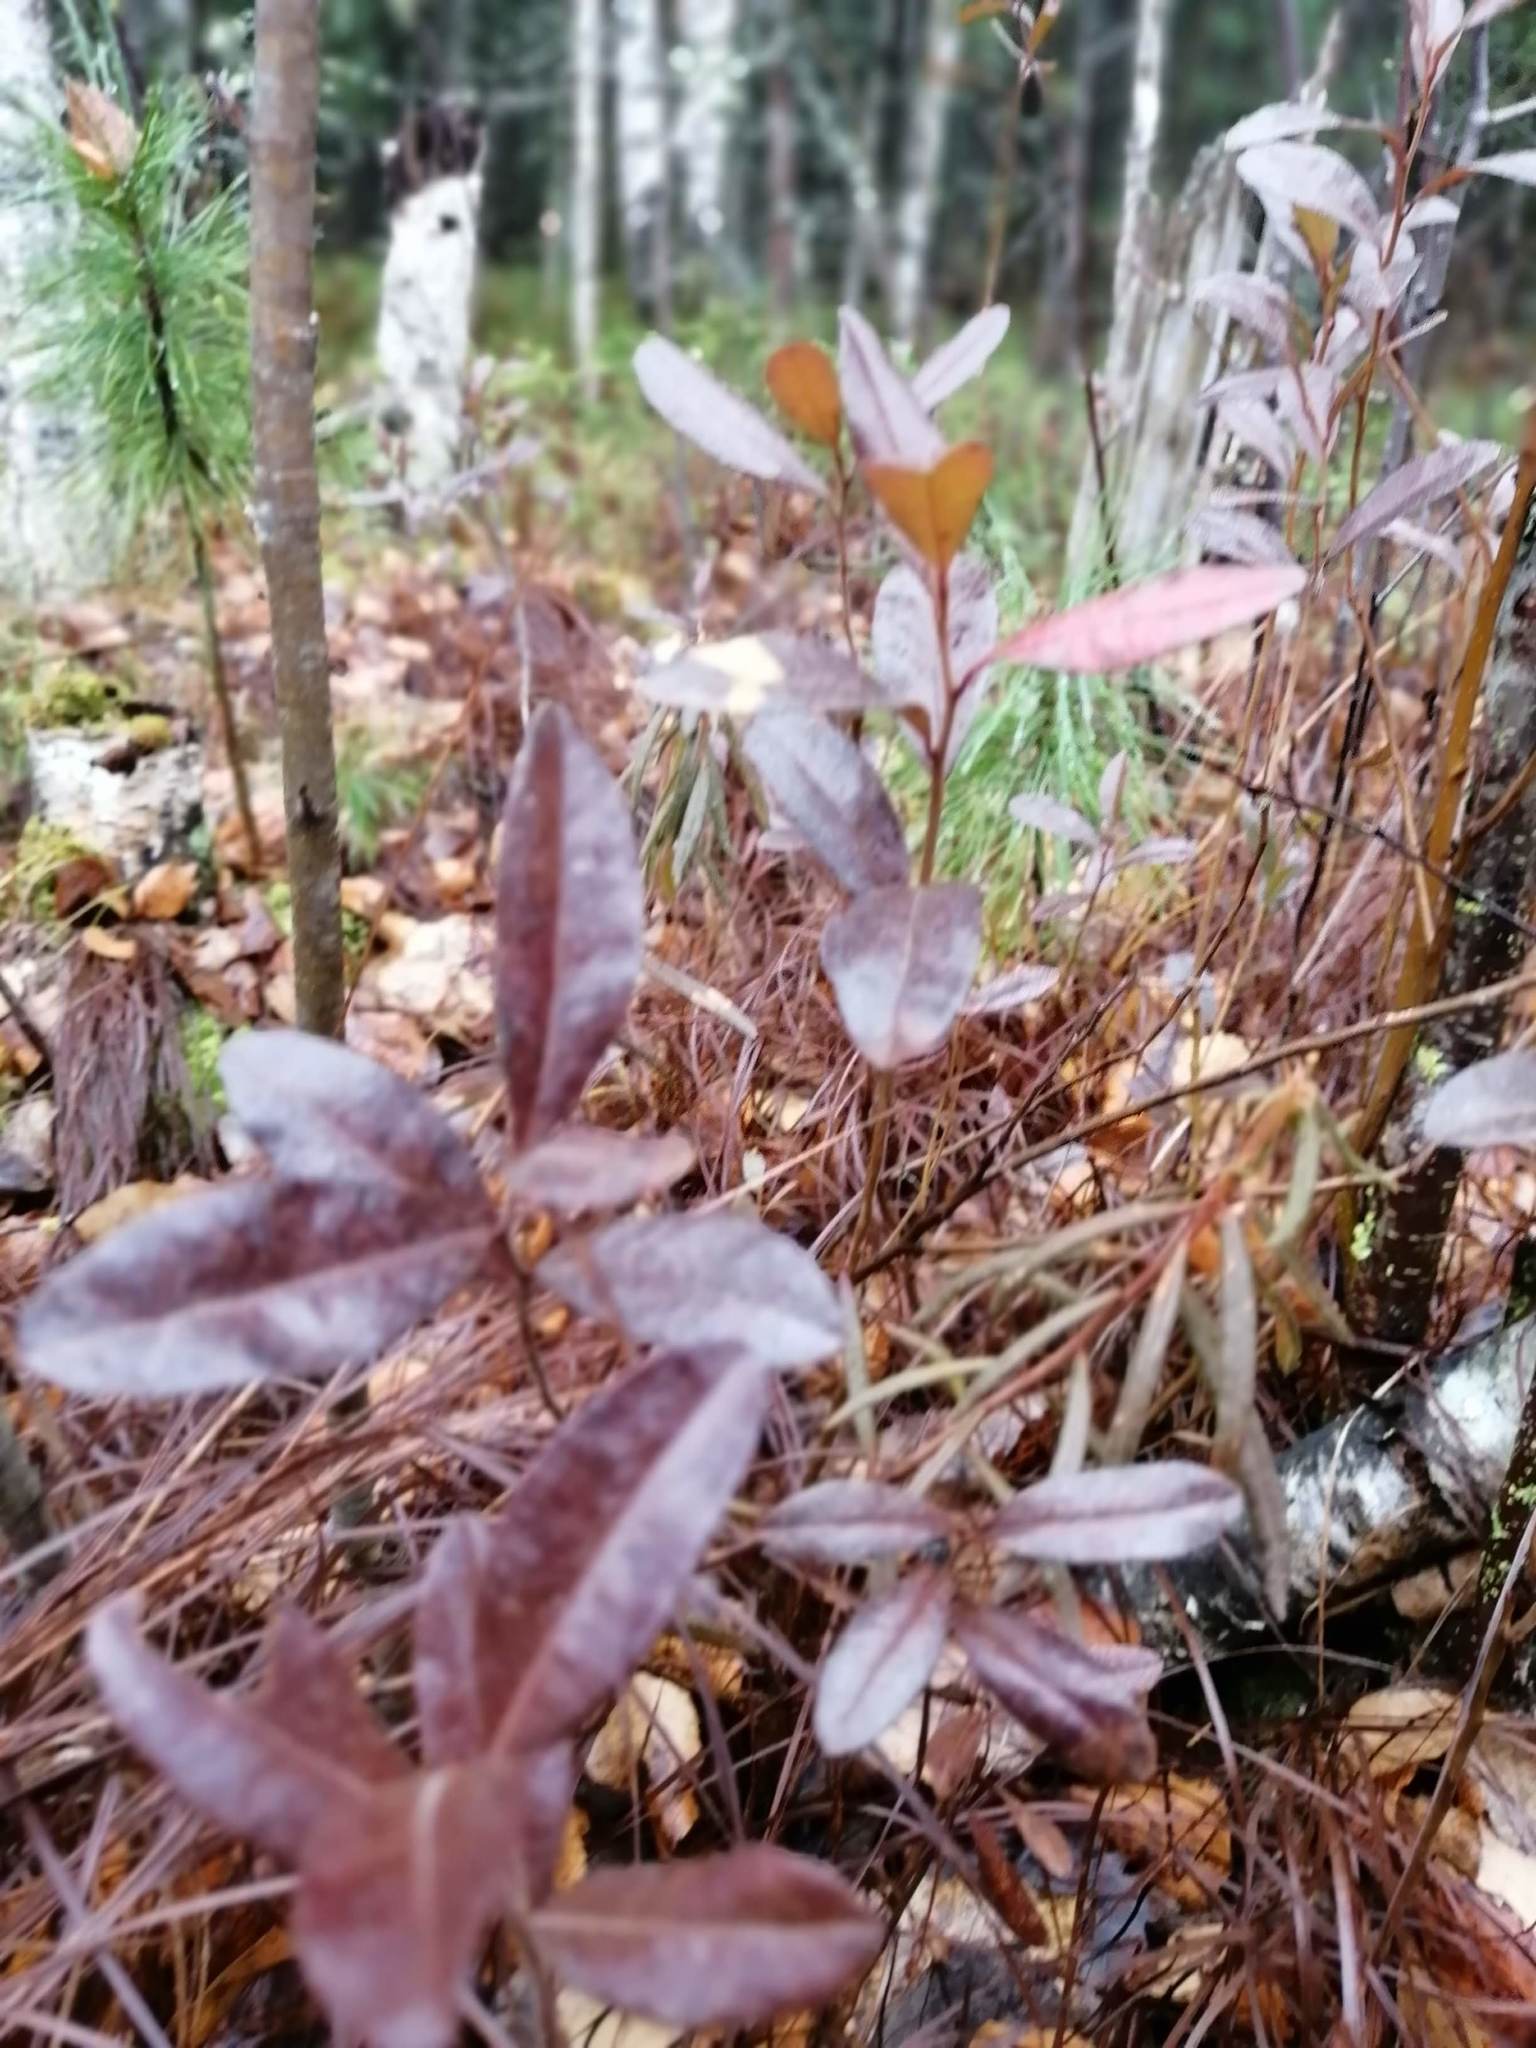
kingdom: Plantae
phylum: Tracheophyta
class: Magnoliopsida
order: Ericales
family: Ericaceae
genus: Chamaedaphne
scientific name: Chamaedaphne calyculata
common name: Leatherleaf
